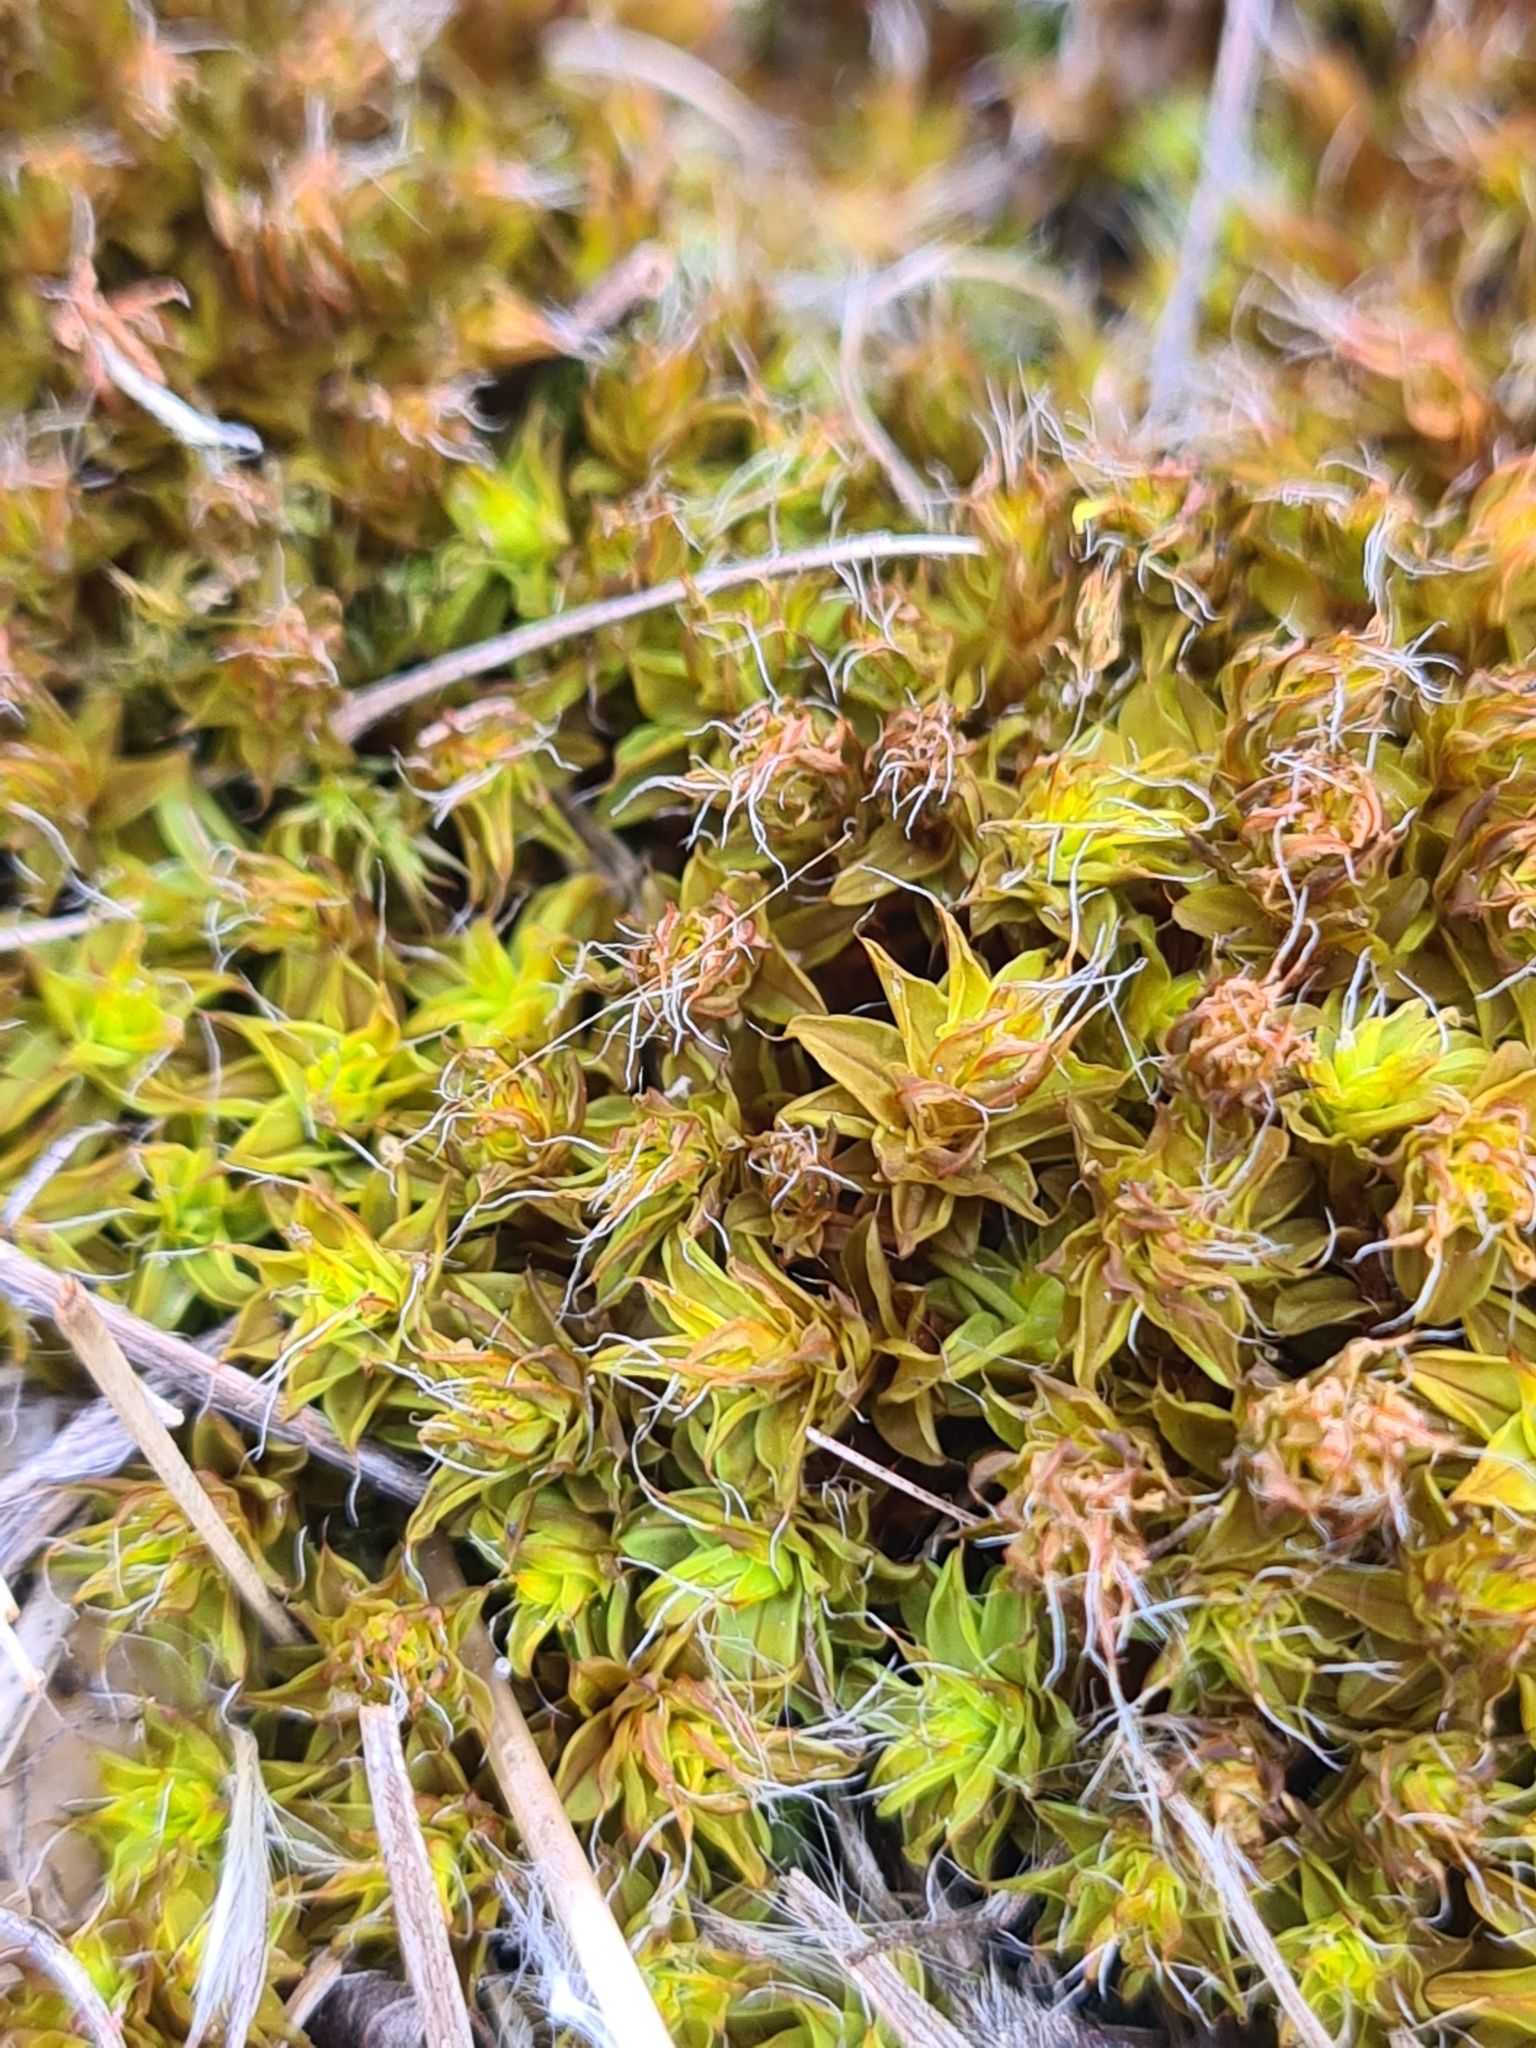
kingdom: Plantae
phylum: Bryophyta
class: Bryopsida
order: Pottiales
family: Pottiaceae
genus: Syntrichia
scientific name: Syntrichia ruralis
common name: Sidewalk screw moss
